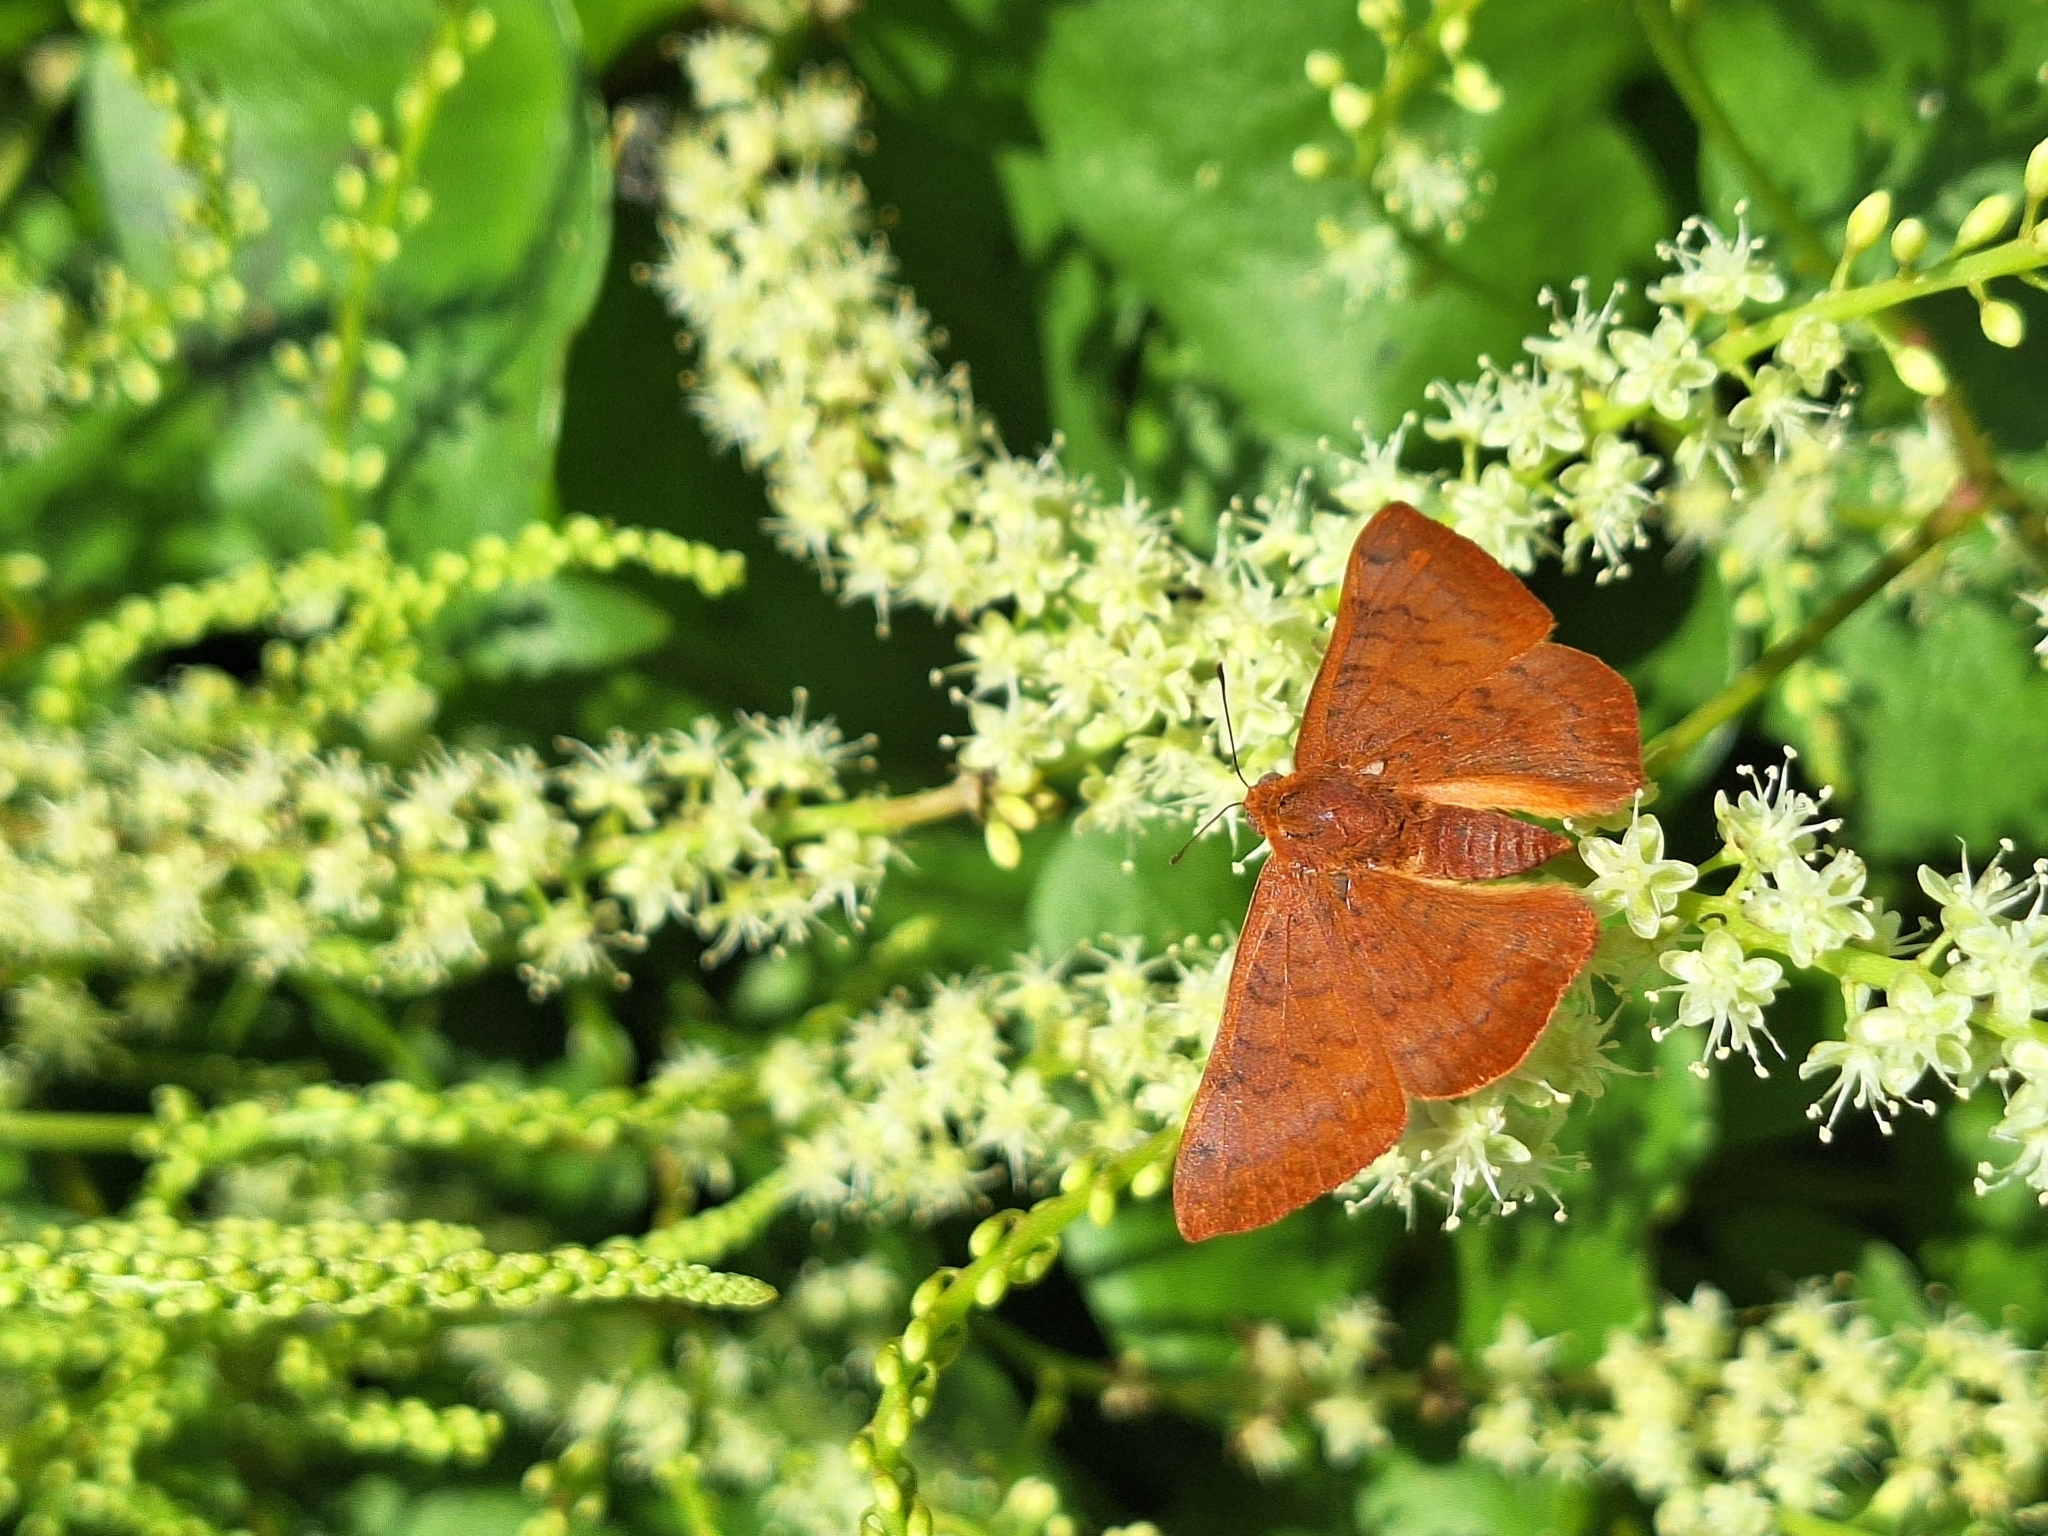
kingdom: Animalia
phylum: Arthropoda
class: Insecta
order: Lepidoptera
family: Lycaenidae
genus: Emesis
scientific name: Emesis russula
